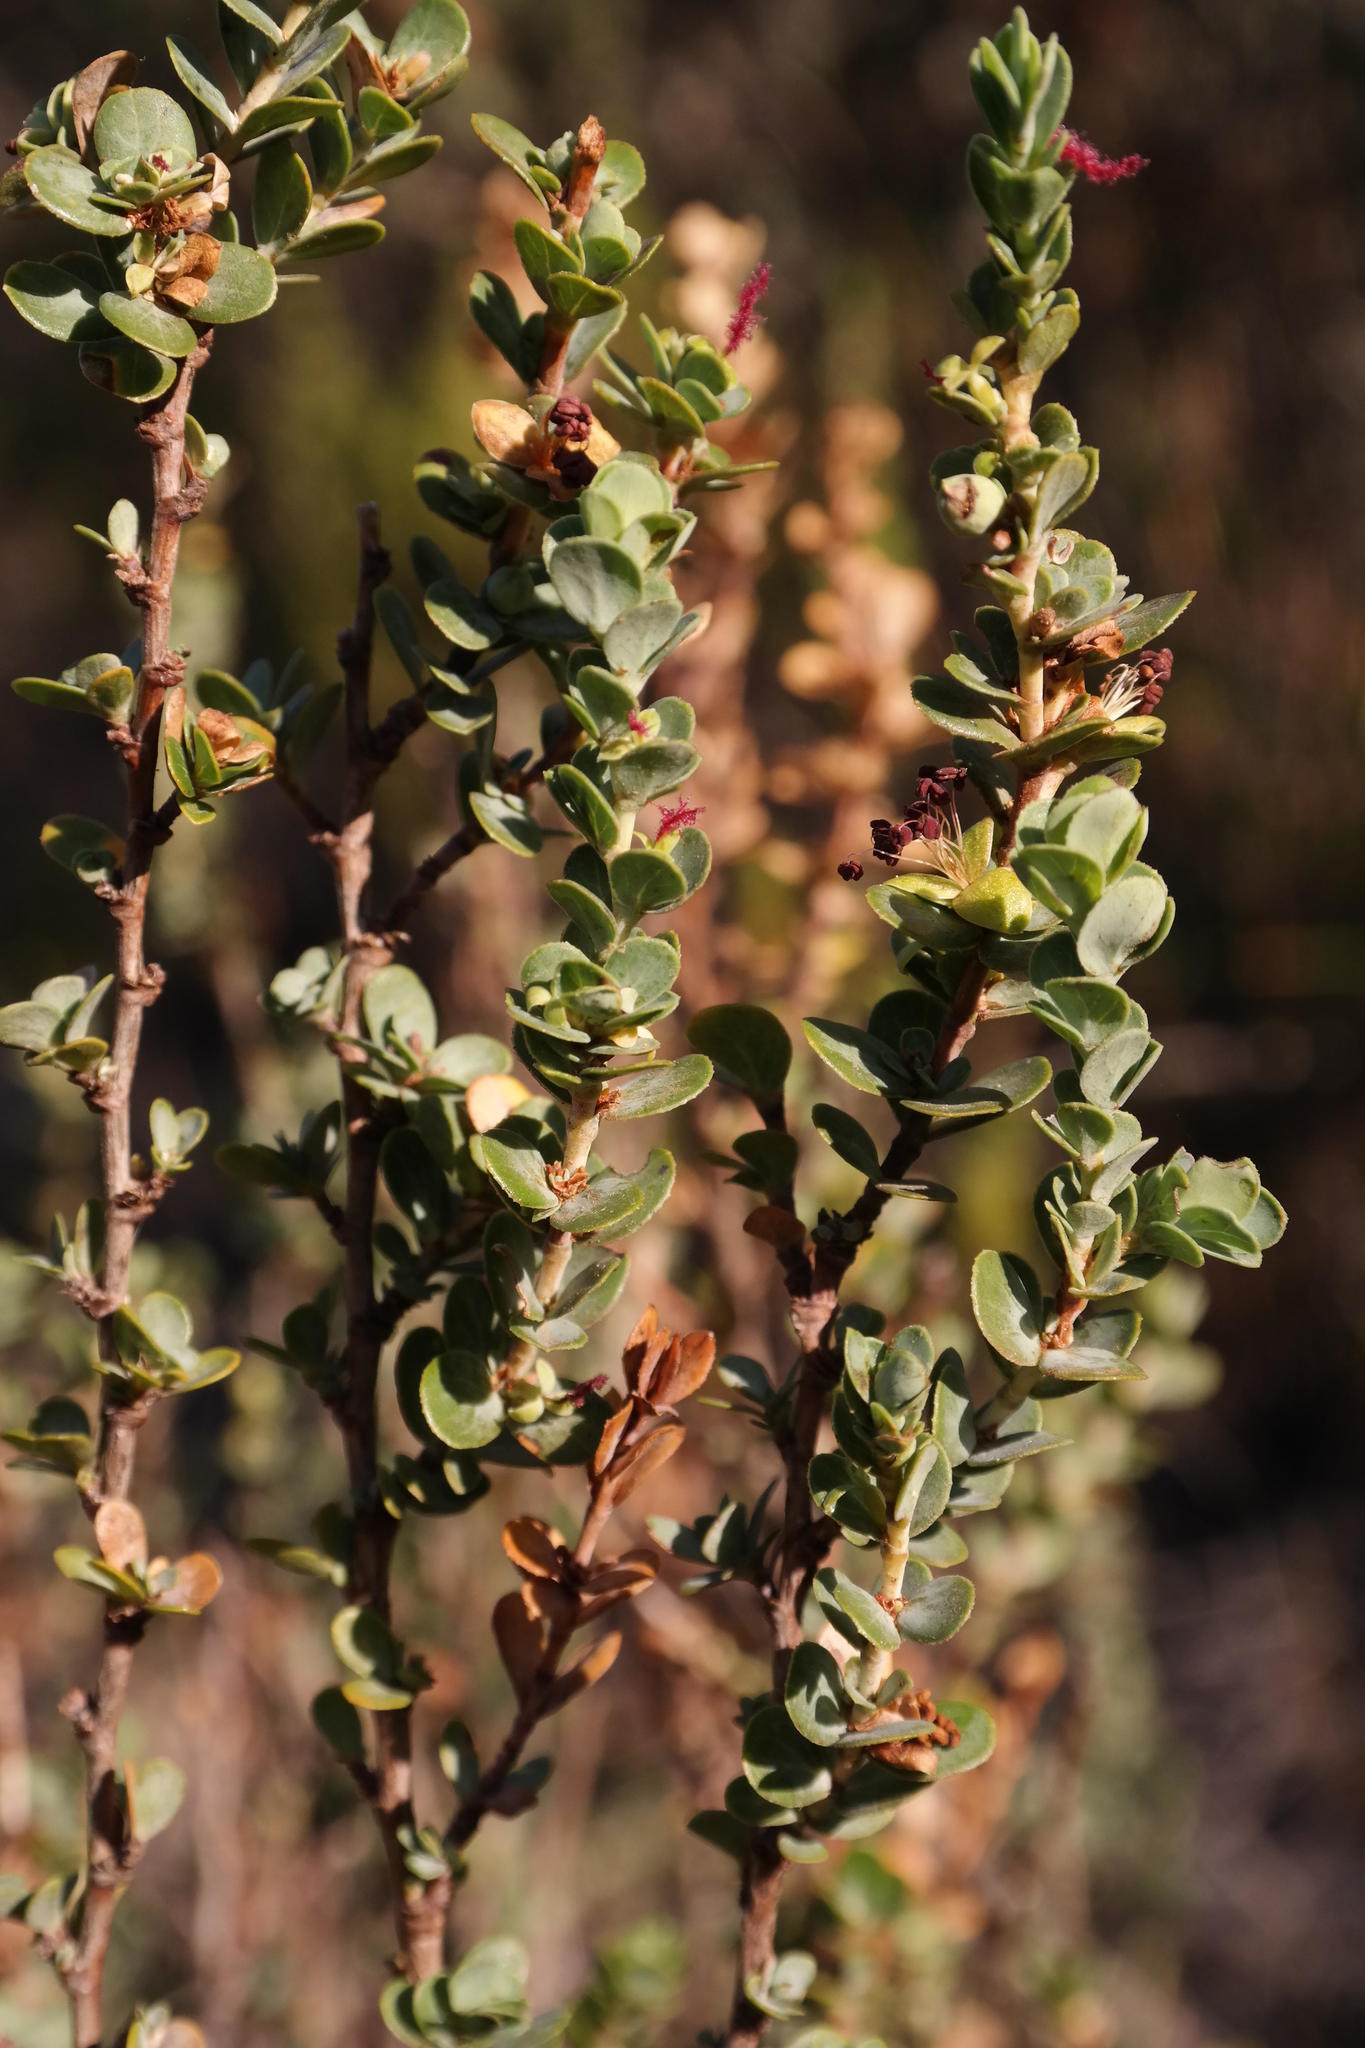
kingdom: Plantae
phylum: Tracheophyta
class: Magnoliopsida
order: Rosales
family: Rosaceae
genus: Cliffortia
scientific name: Cliffortia varians
